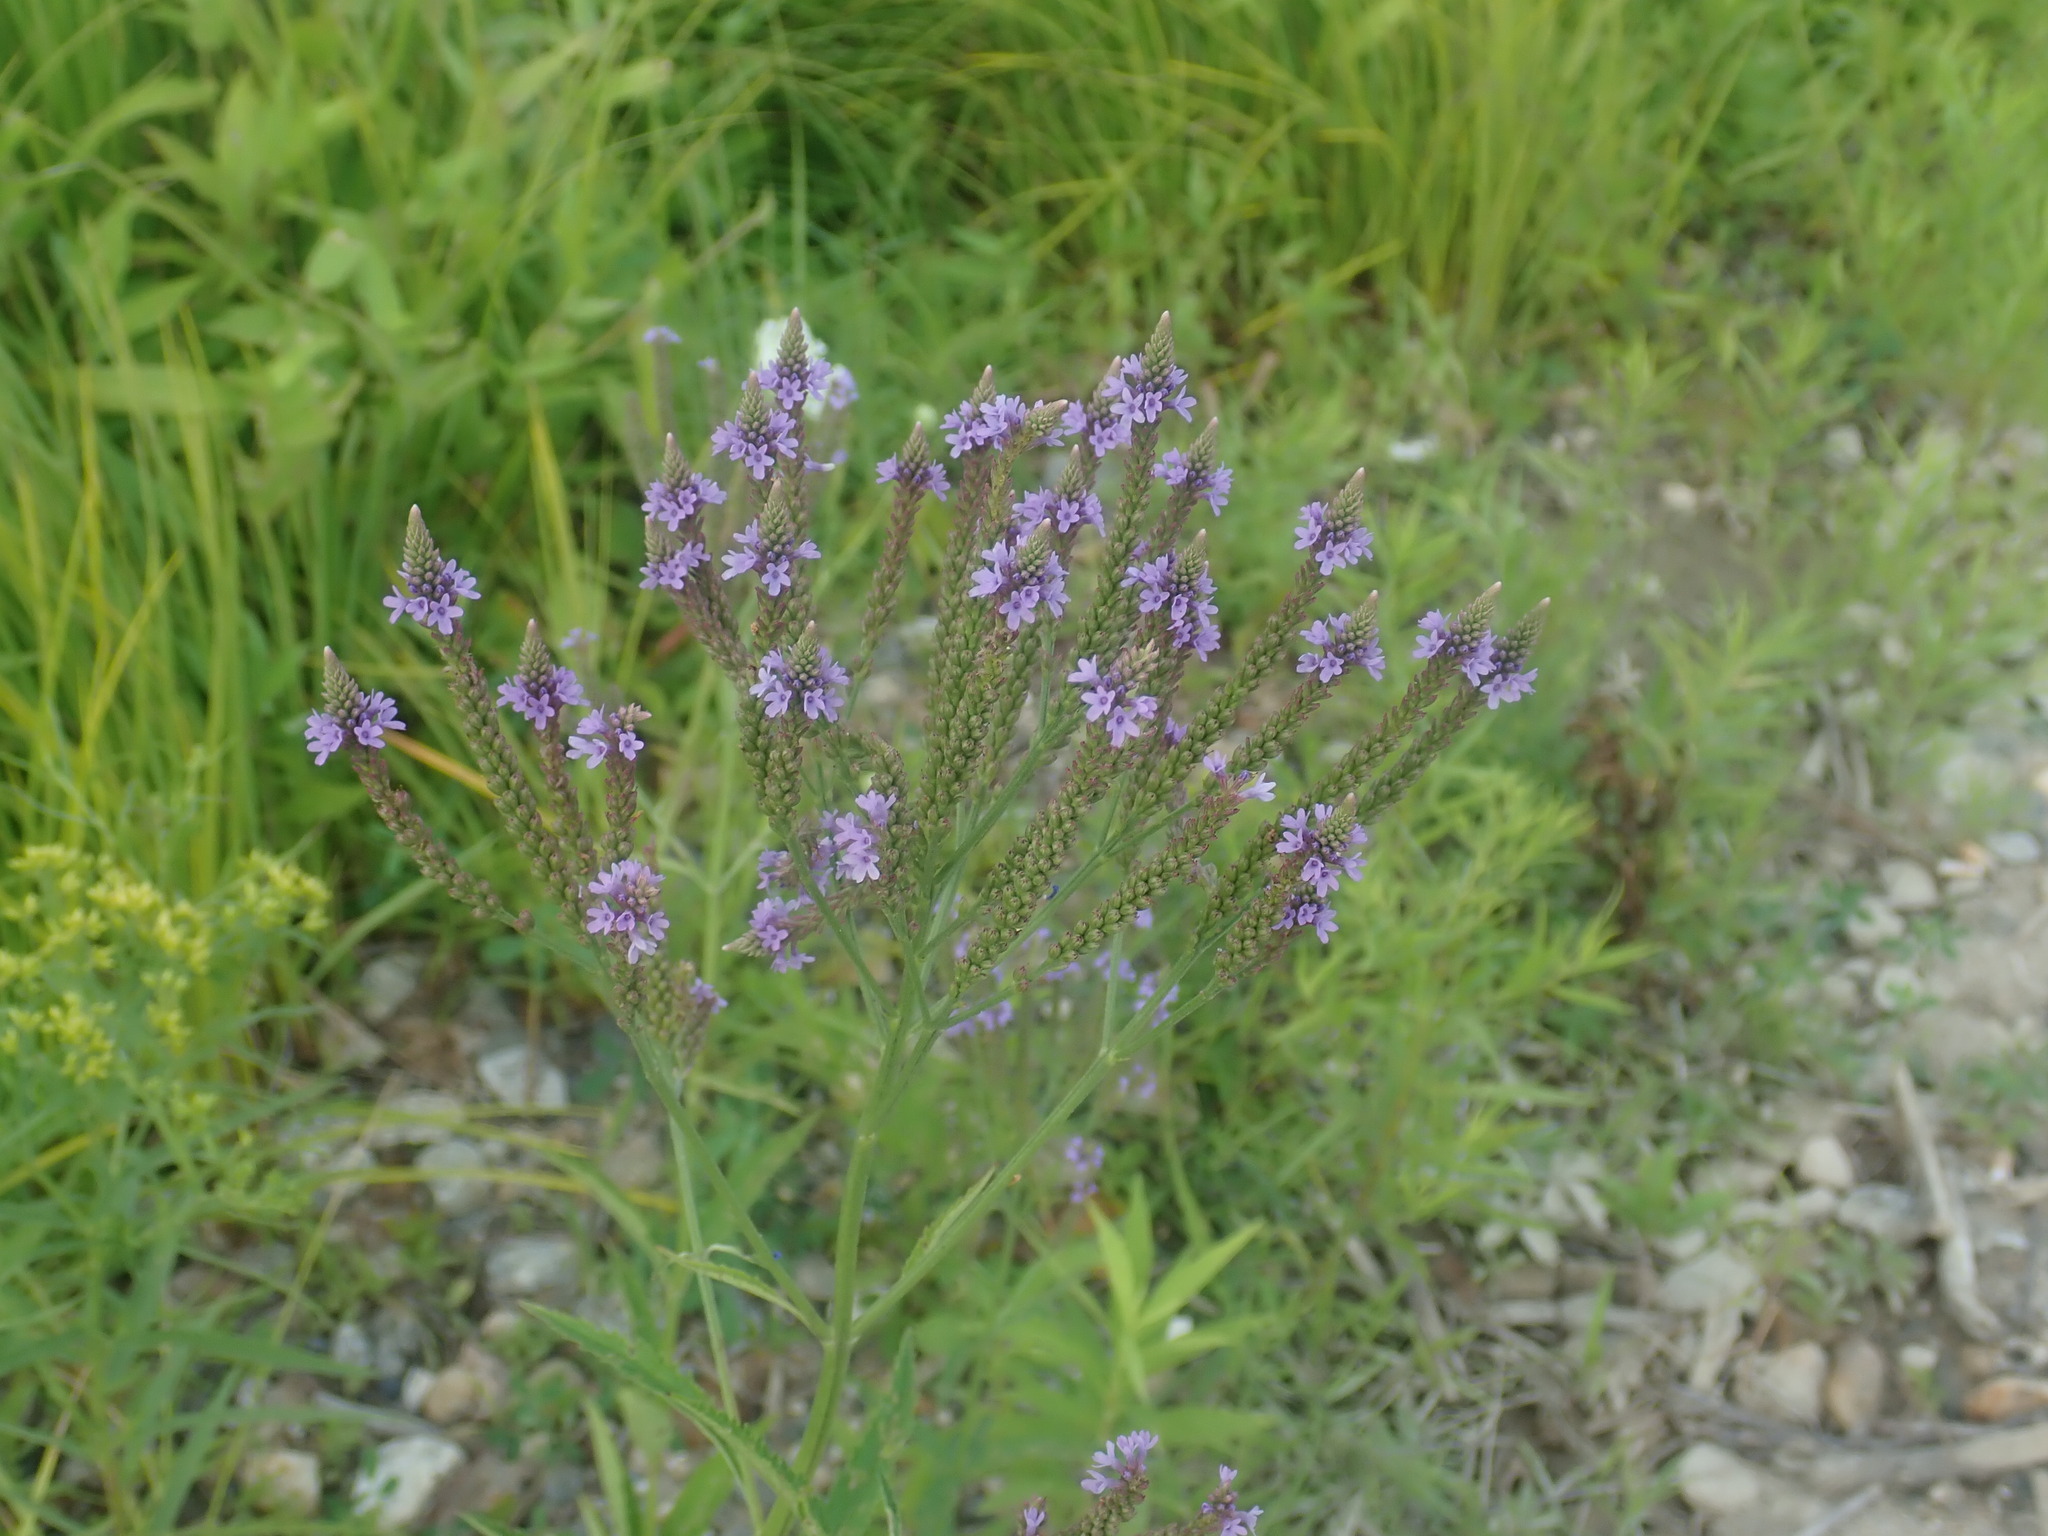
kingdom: Plantae
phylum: Tracheophyta
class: Magnoliopsida
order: Lamiales
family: Verbenaceae
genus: Verbena
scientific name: Verbena hastata
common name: American blue vervain
